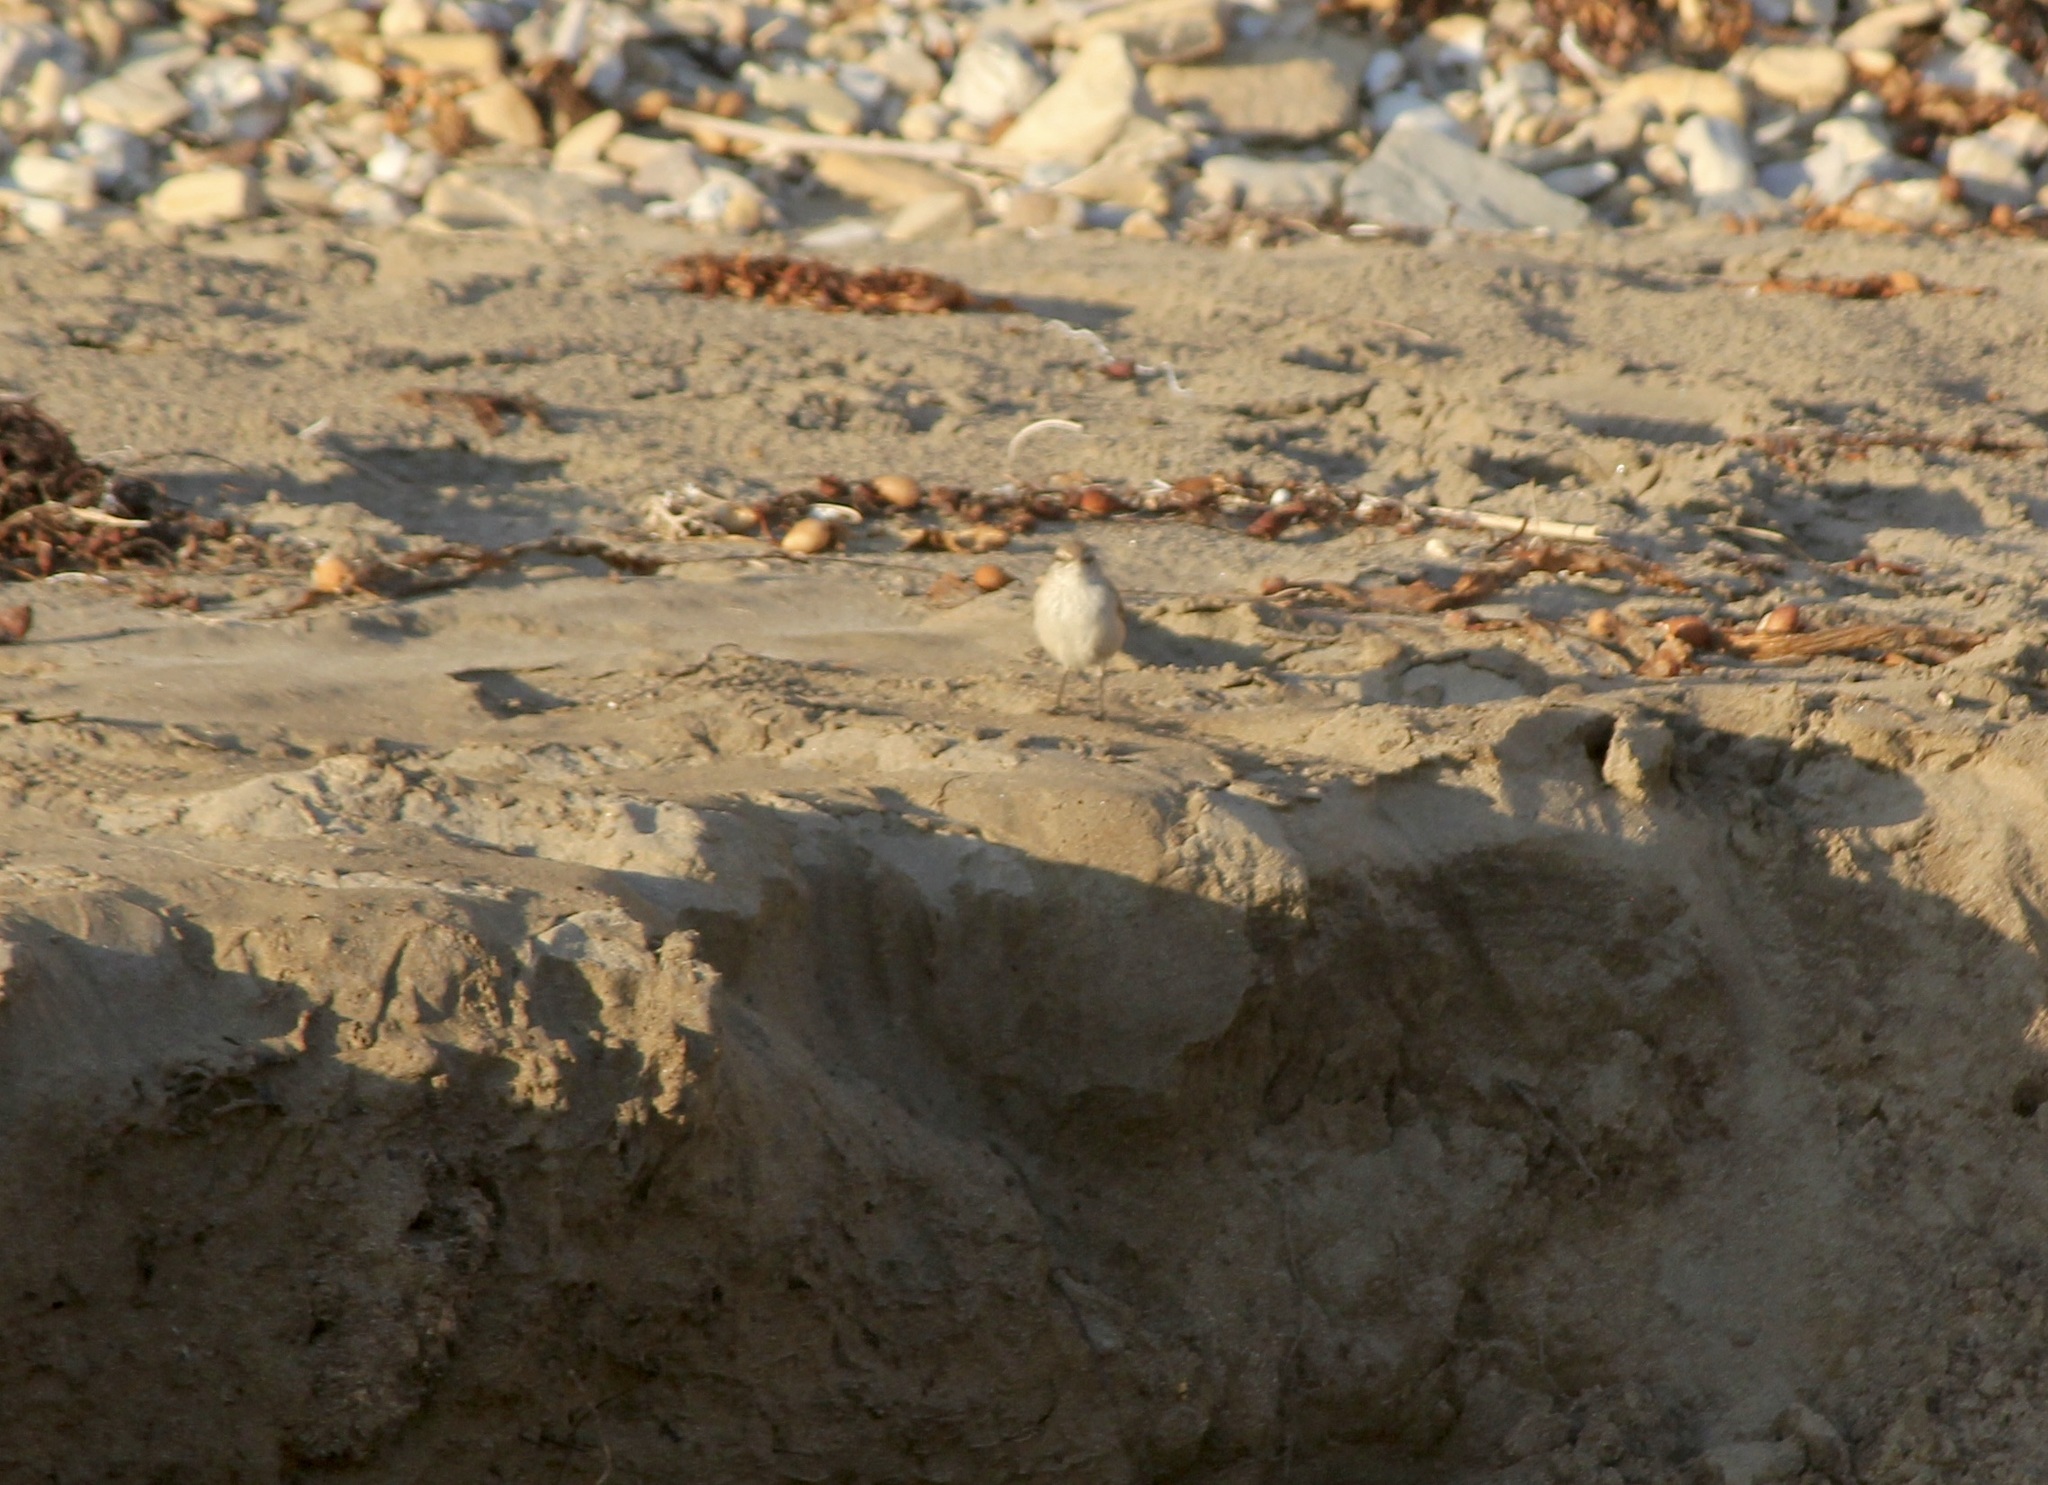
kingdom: Animalia
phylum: Chordata
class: Aves
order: Passeriformes
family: Troglodytidae
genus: Salpinctes
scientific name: Salpinctes obsoletus
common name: Rock wren
